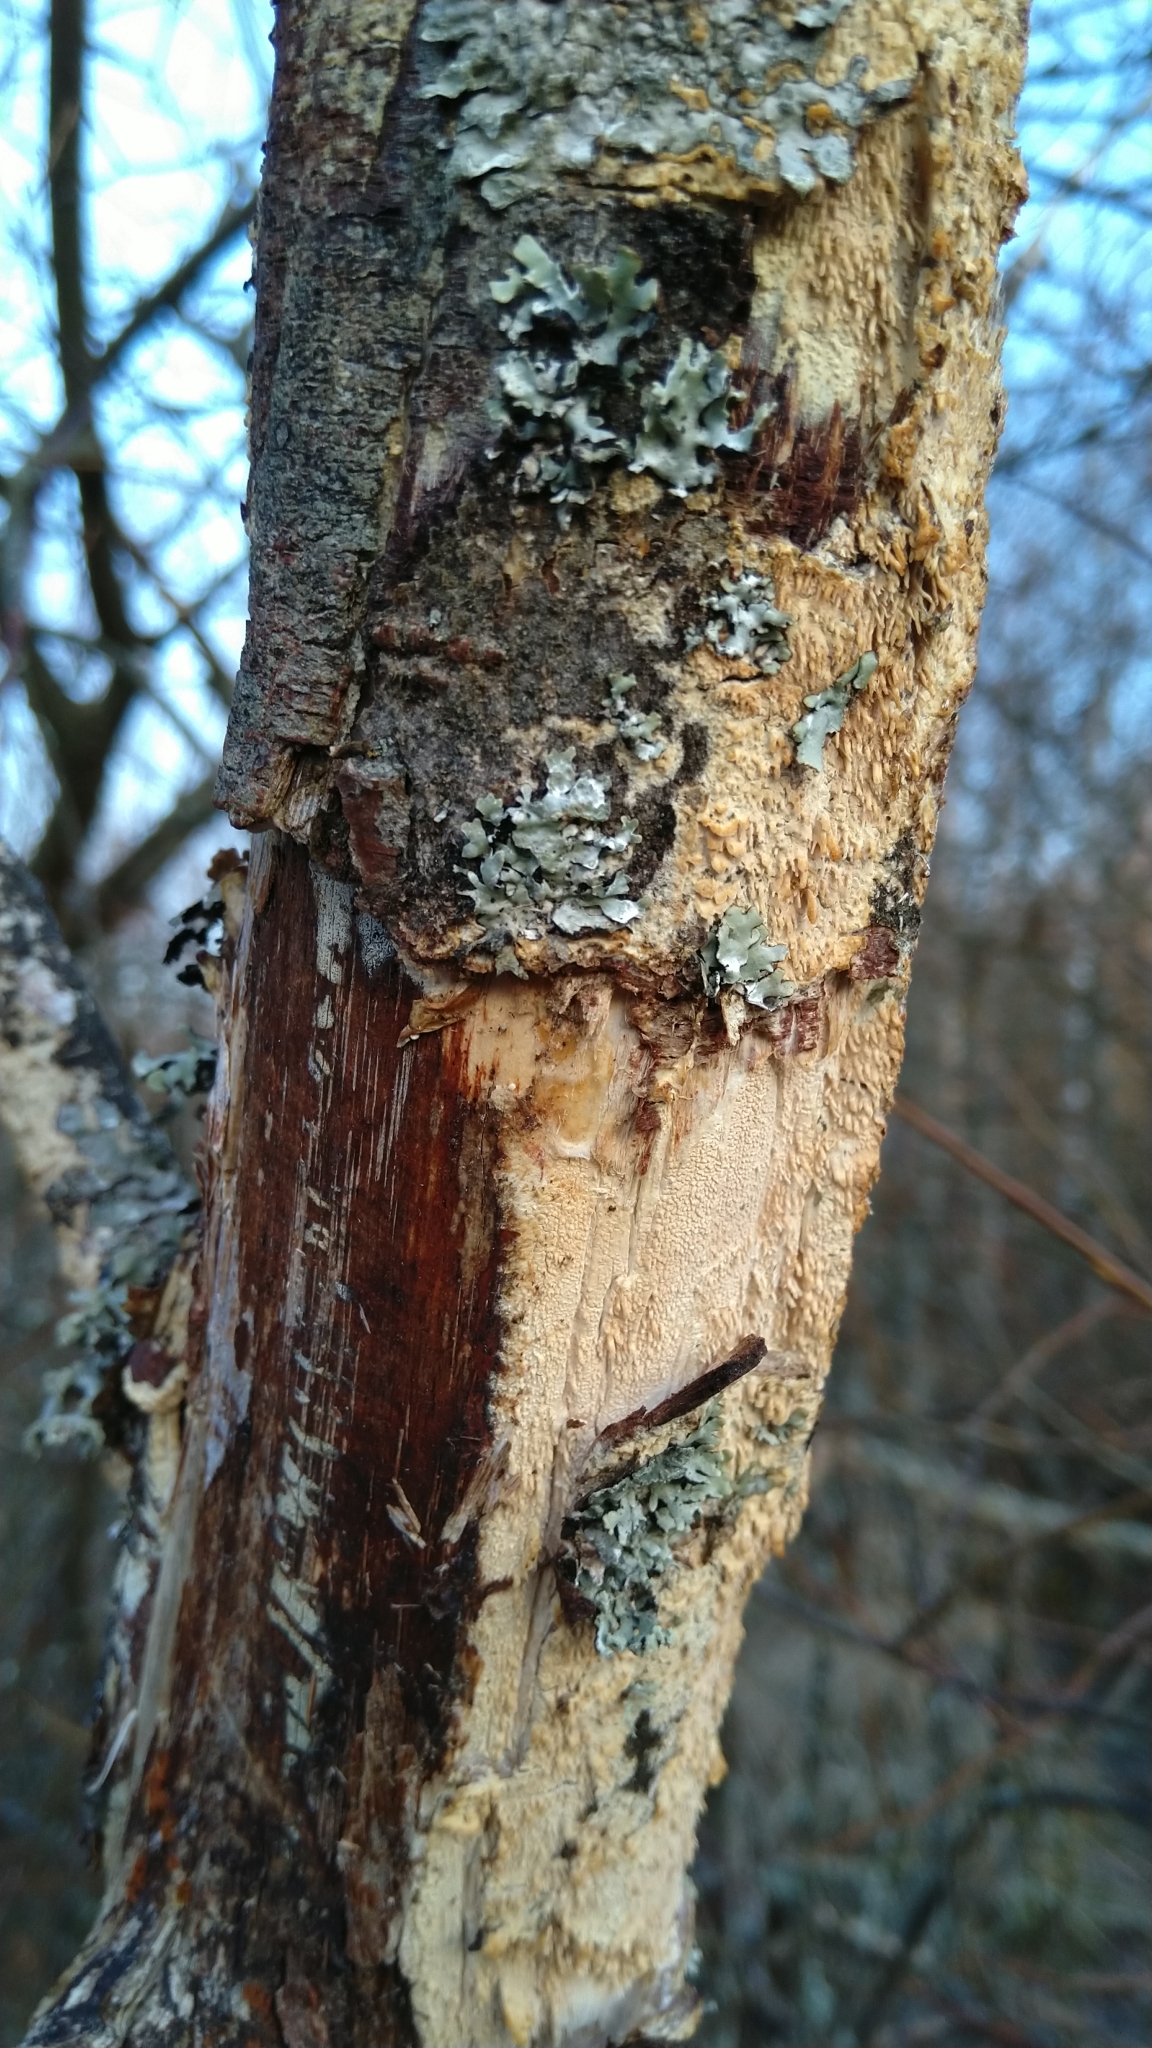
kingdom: Fungi
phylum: Basidiomycota
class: Agaricomycetes
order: Polyporales
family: Irpicaceae
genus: Irpex
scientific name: Irpex lacteus
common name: Milk-white toothed polypore
